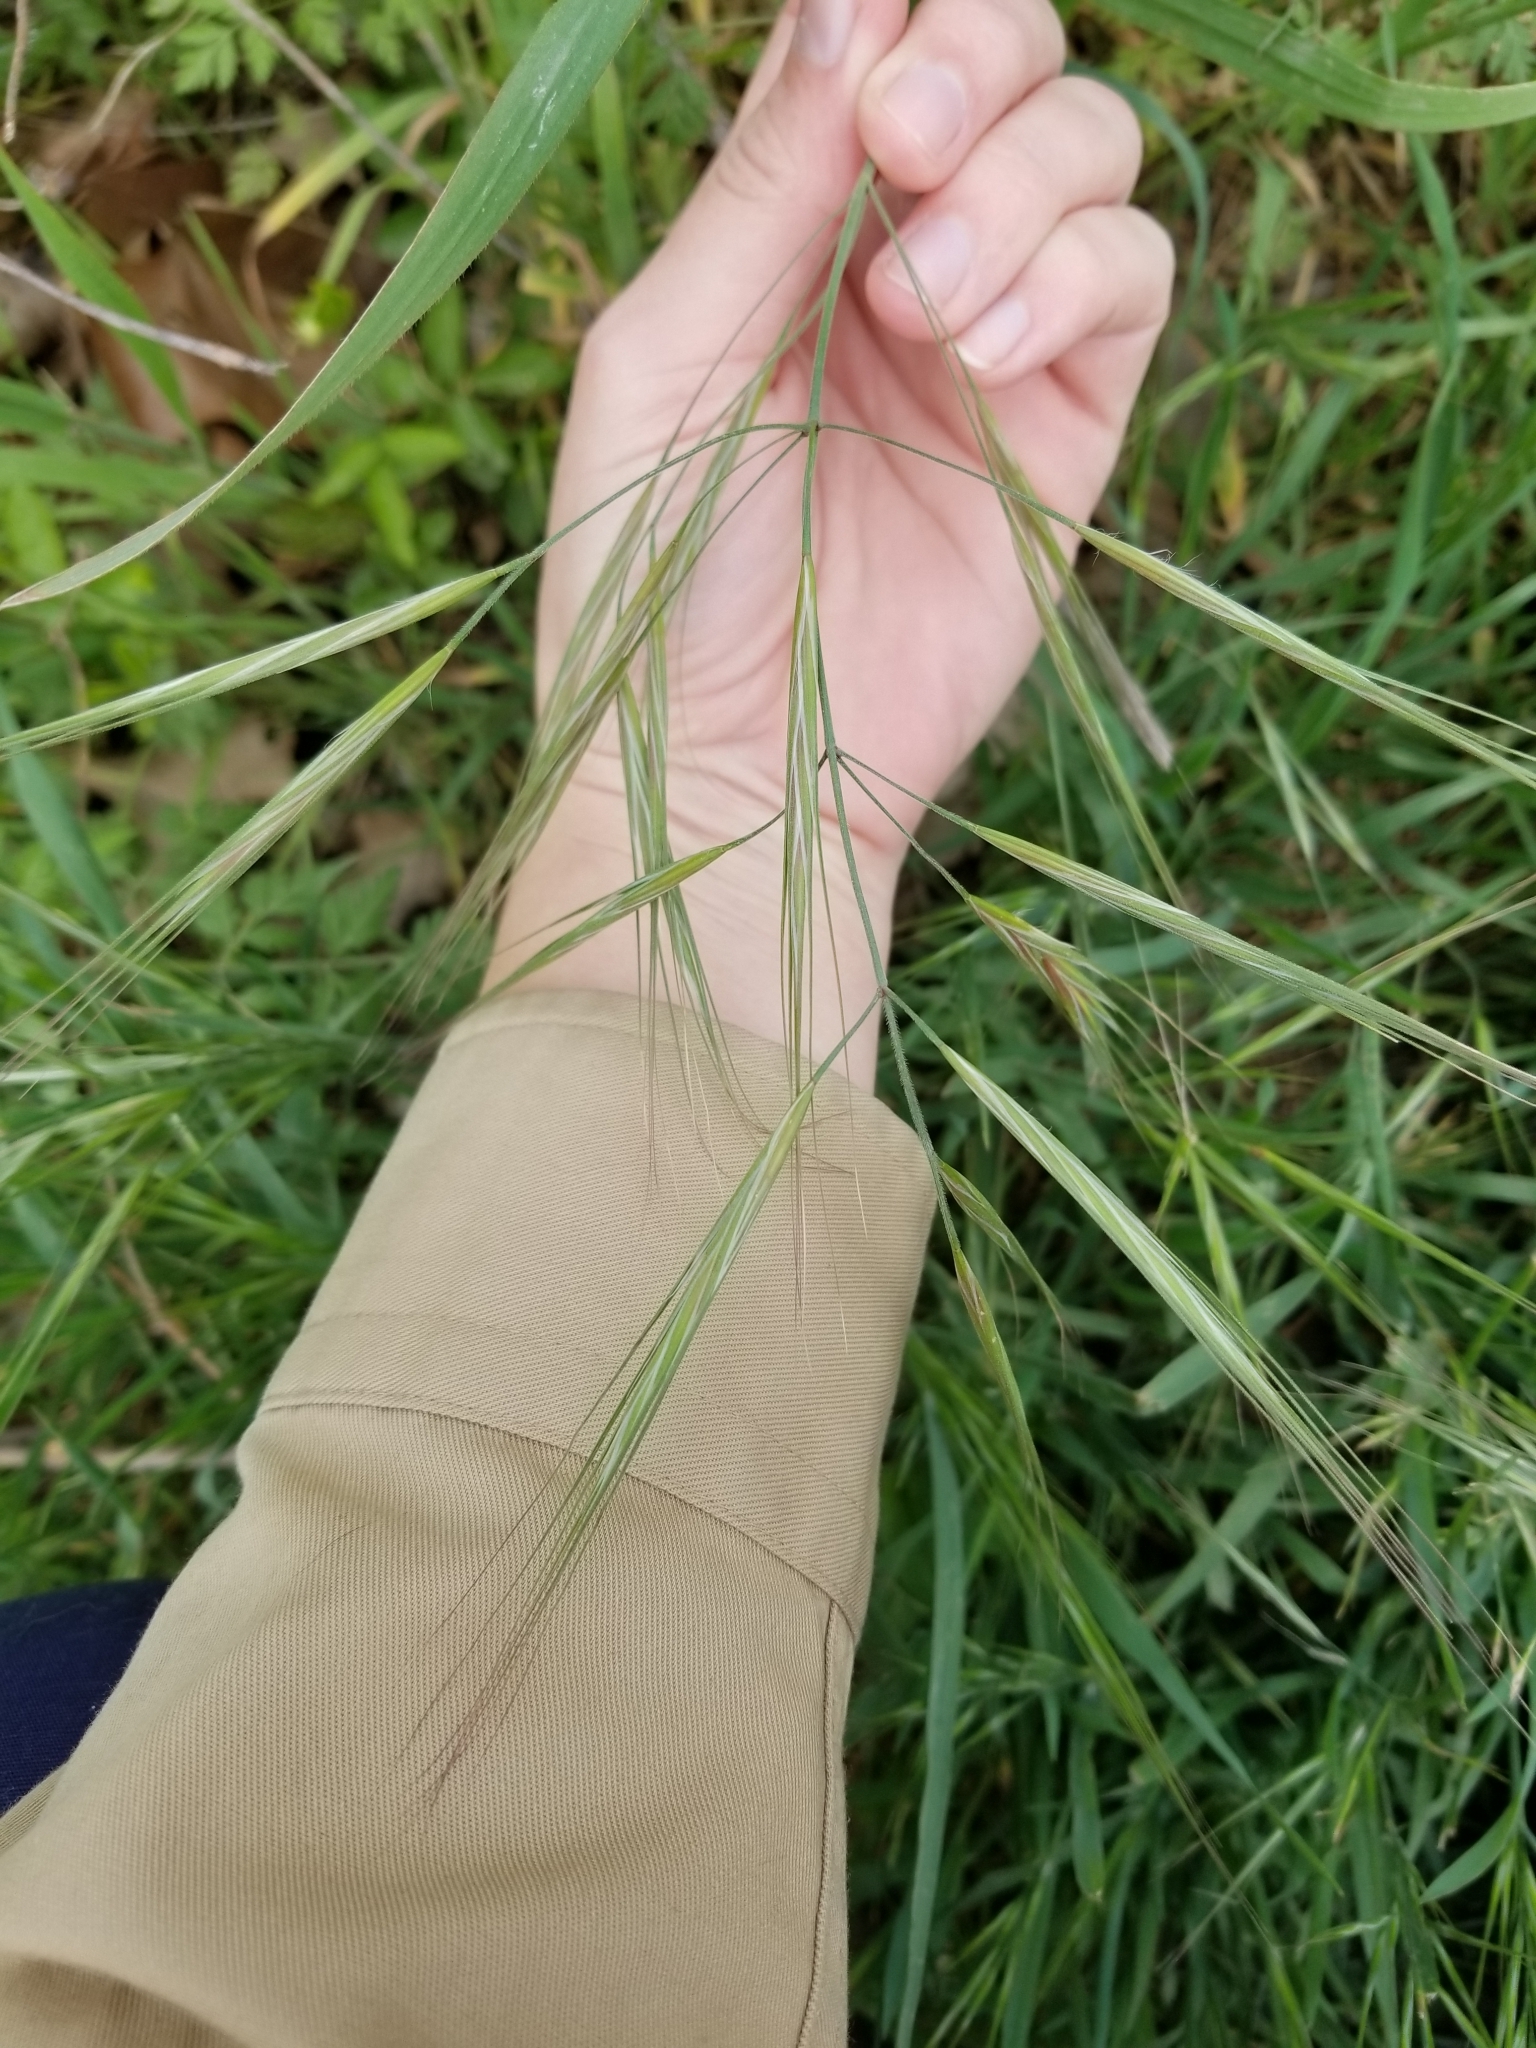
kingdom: Plantae
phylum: Tracheophyta
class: Liliopsida
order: Poales
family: Poaceae
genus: Bromus
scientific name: Bromus diandrus
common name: Ripgut brome
